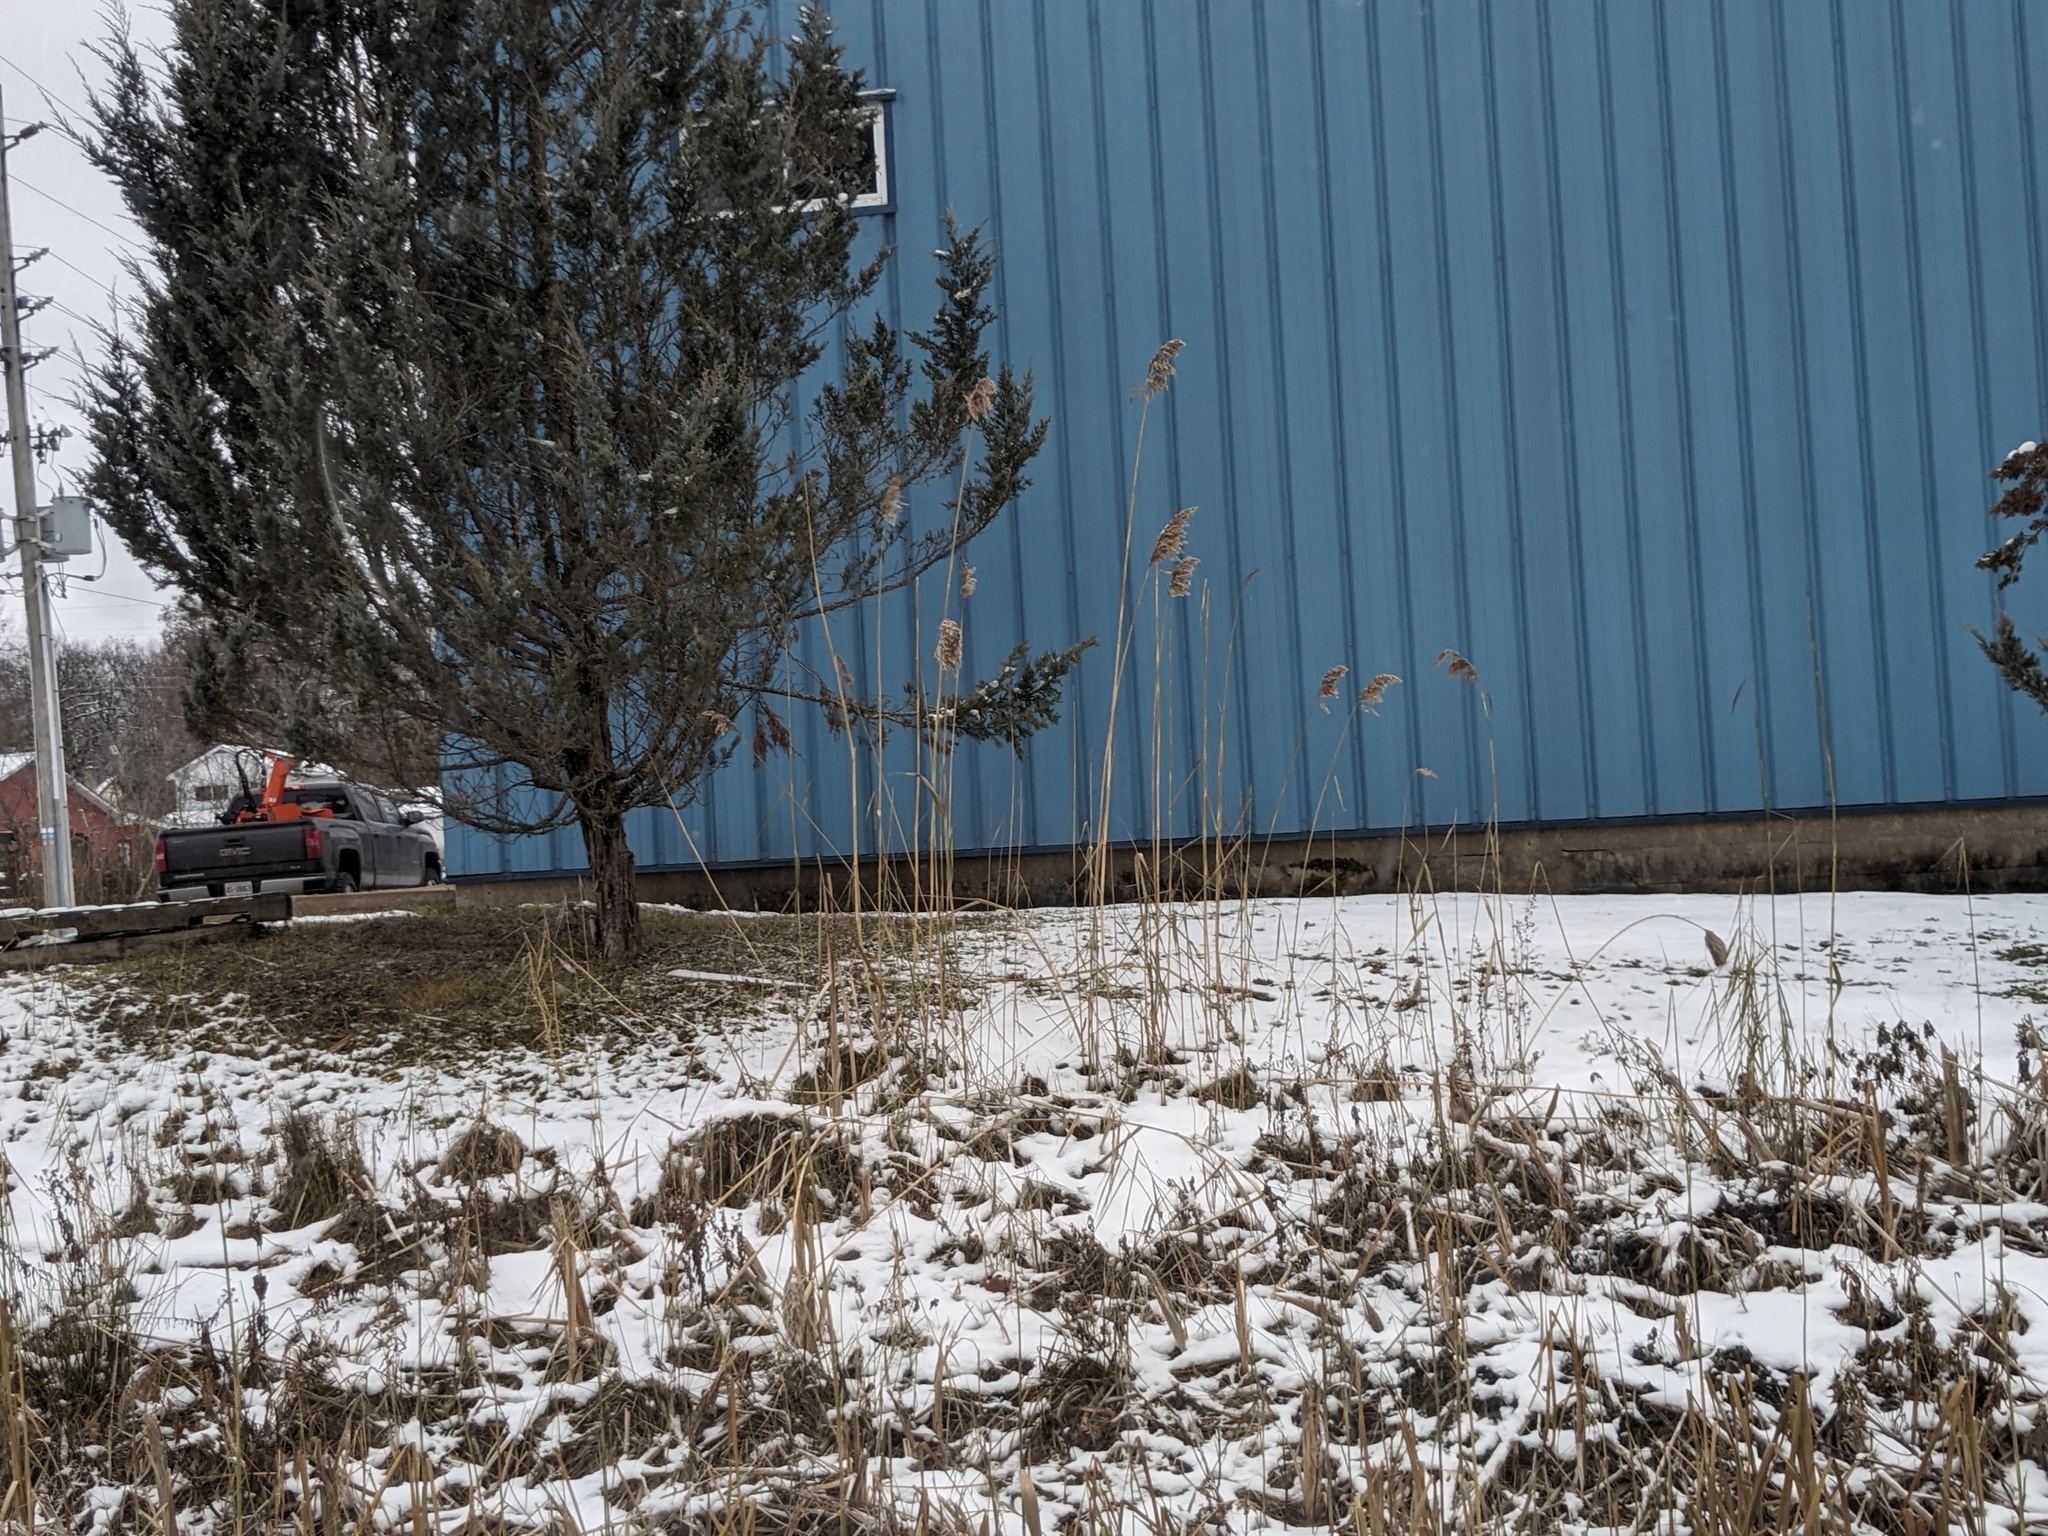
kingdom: Plantae
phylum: Tracheophyta
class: Liliopsida
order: Poales
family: Poaceae
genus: Phragmites
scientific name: Phragmites australis
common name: Common reed
